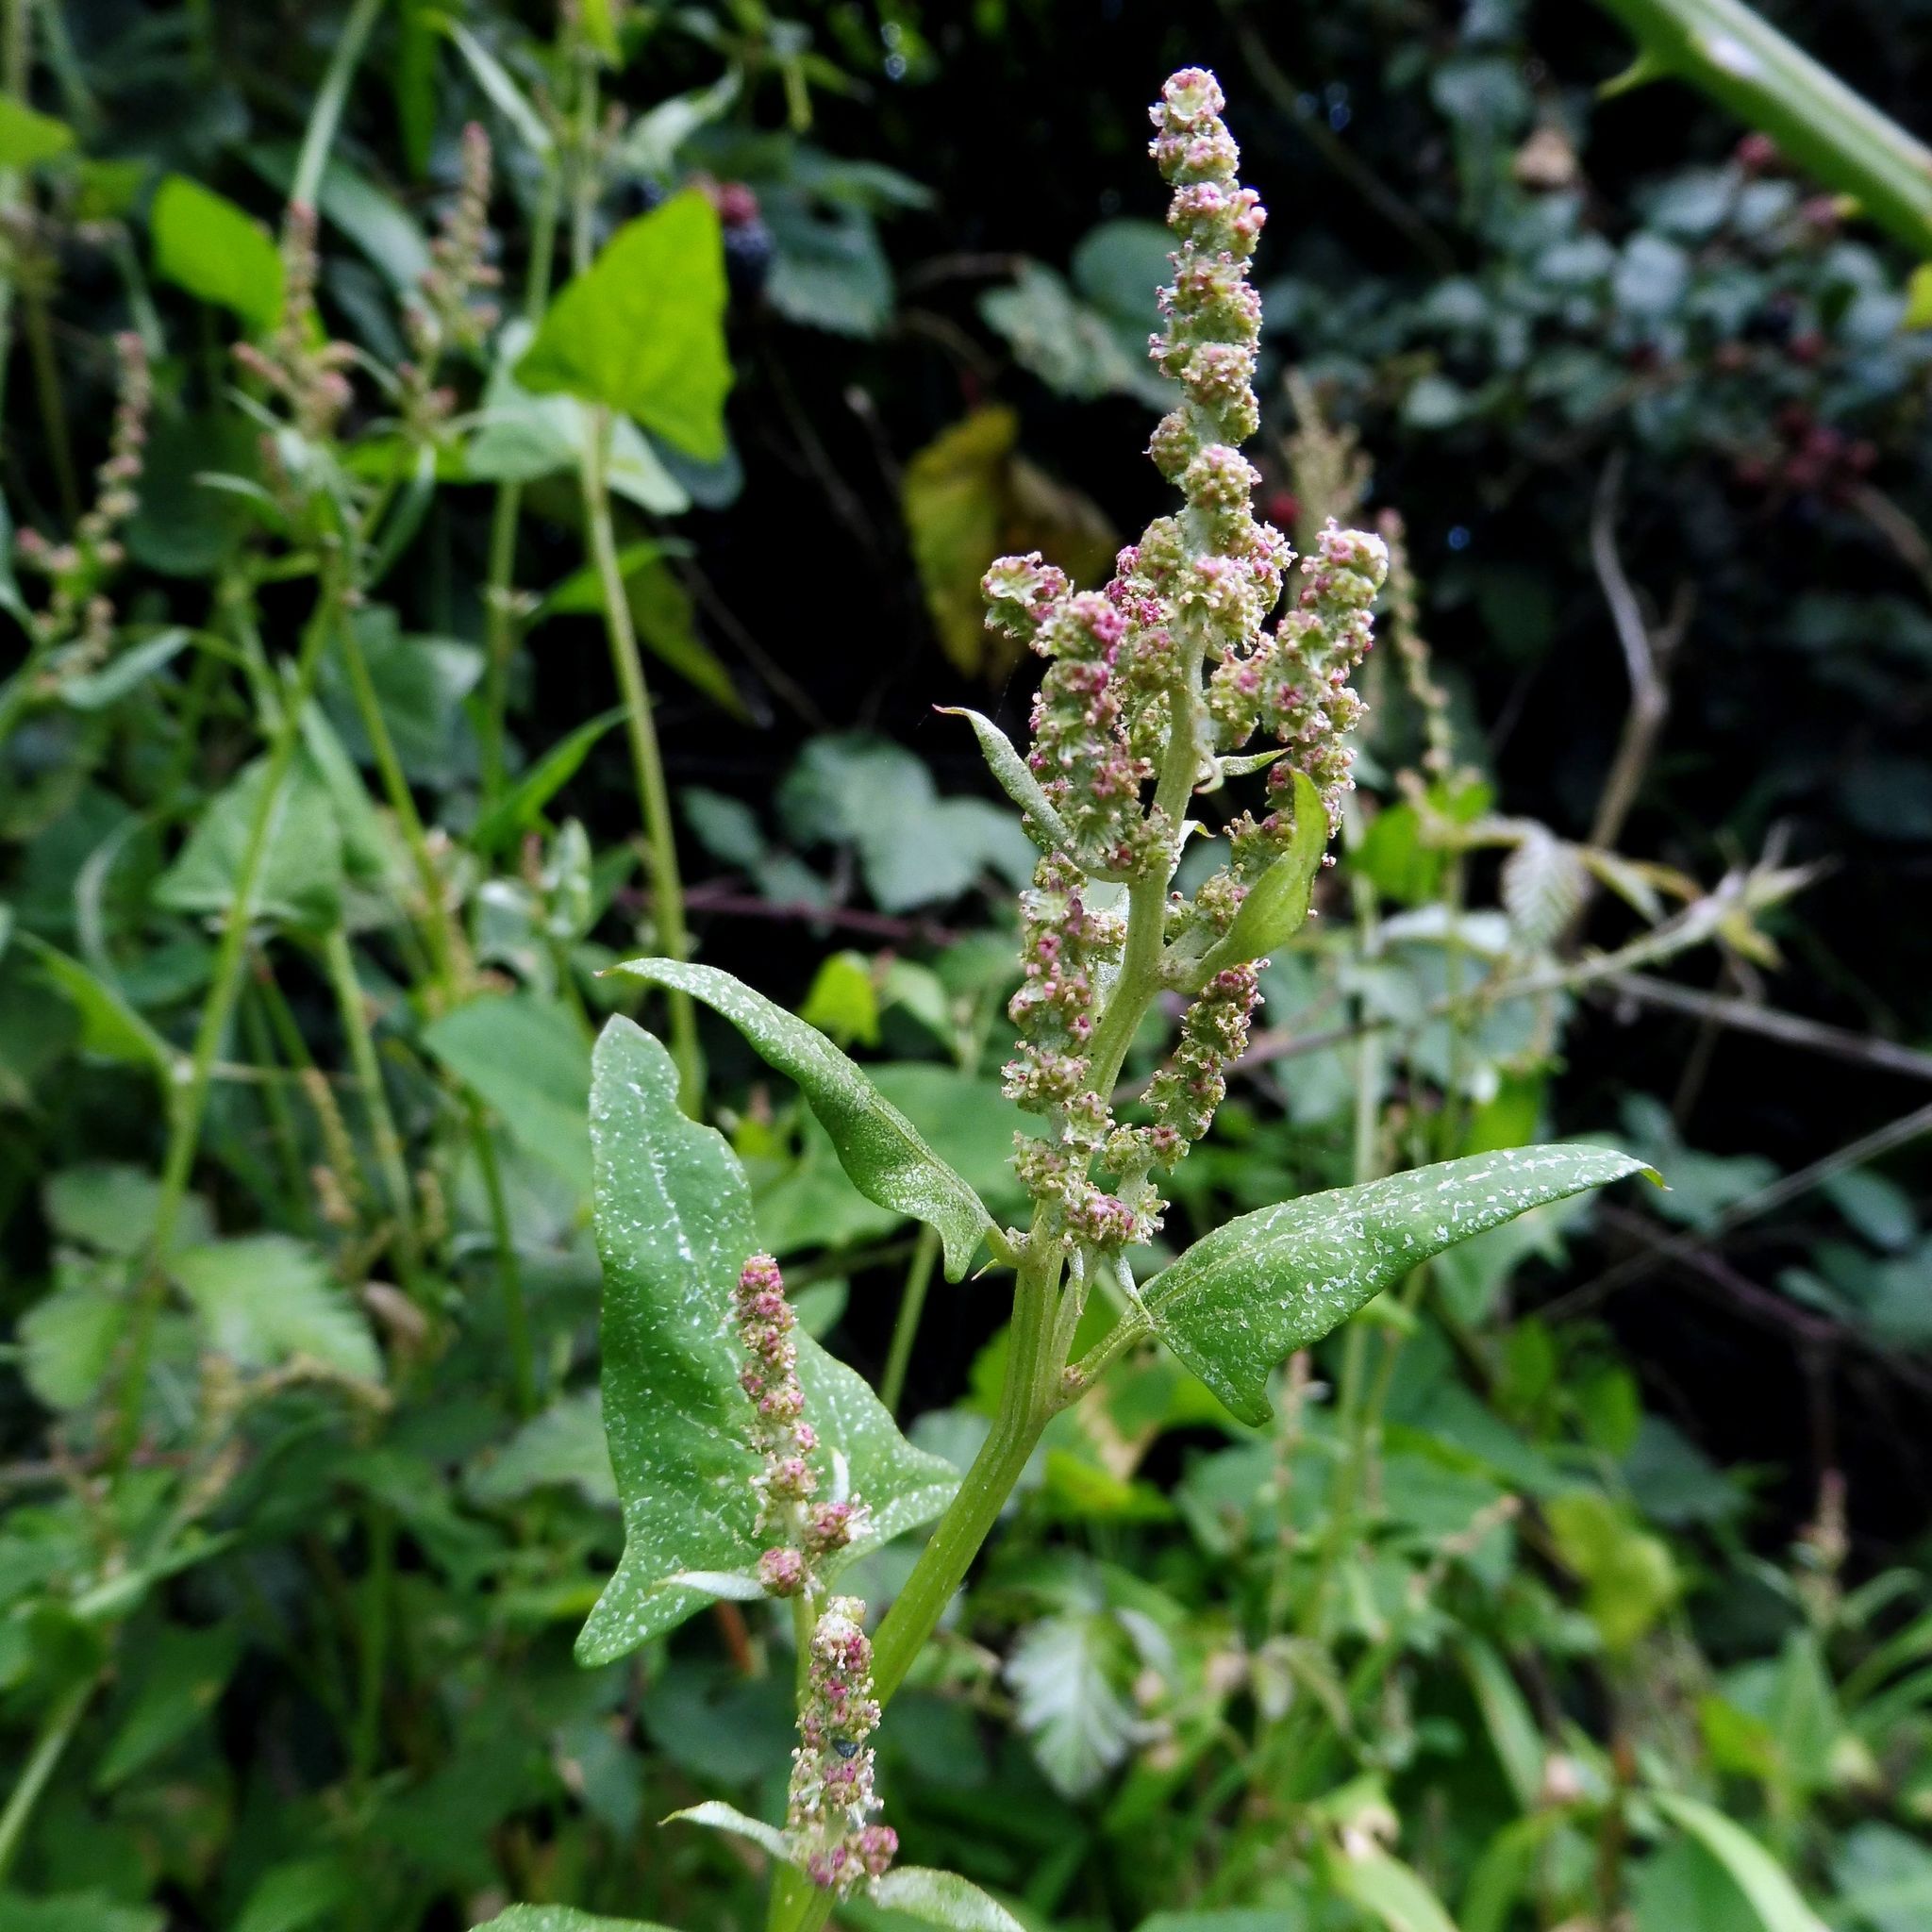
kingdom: Plantae
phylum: Tracheophyta
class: Magnoliopsida
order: Caryophyllales
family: Amaranthaceae
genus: Atriplex
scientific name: Atriplex prostrata
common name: Spear-leaved orache
